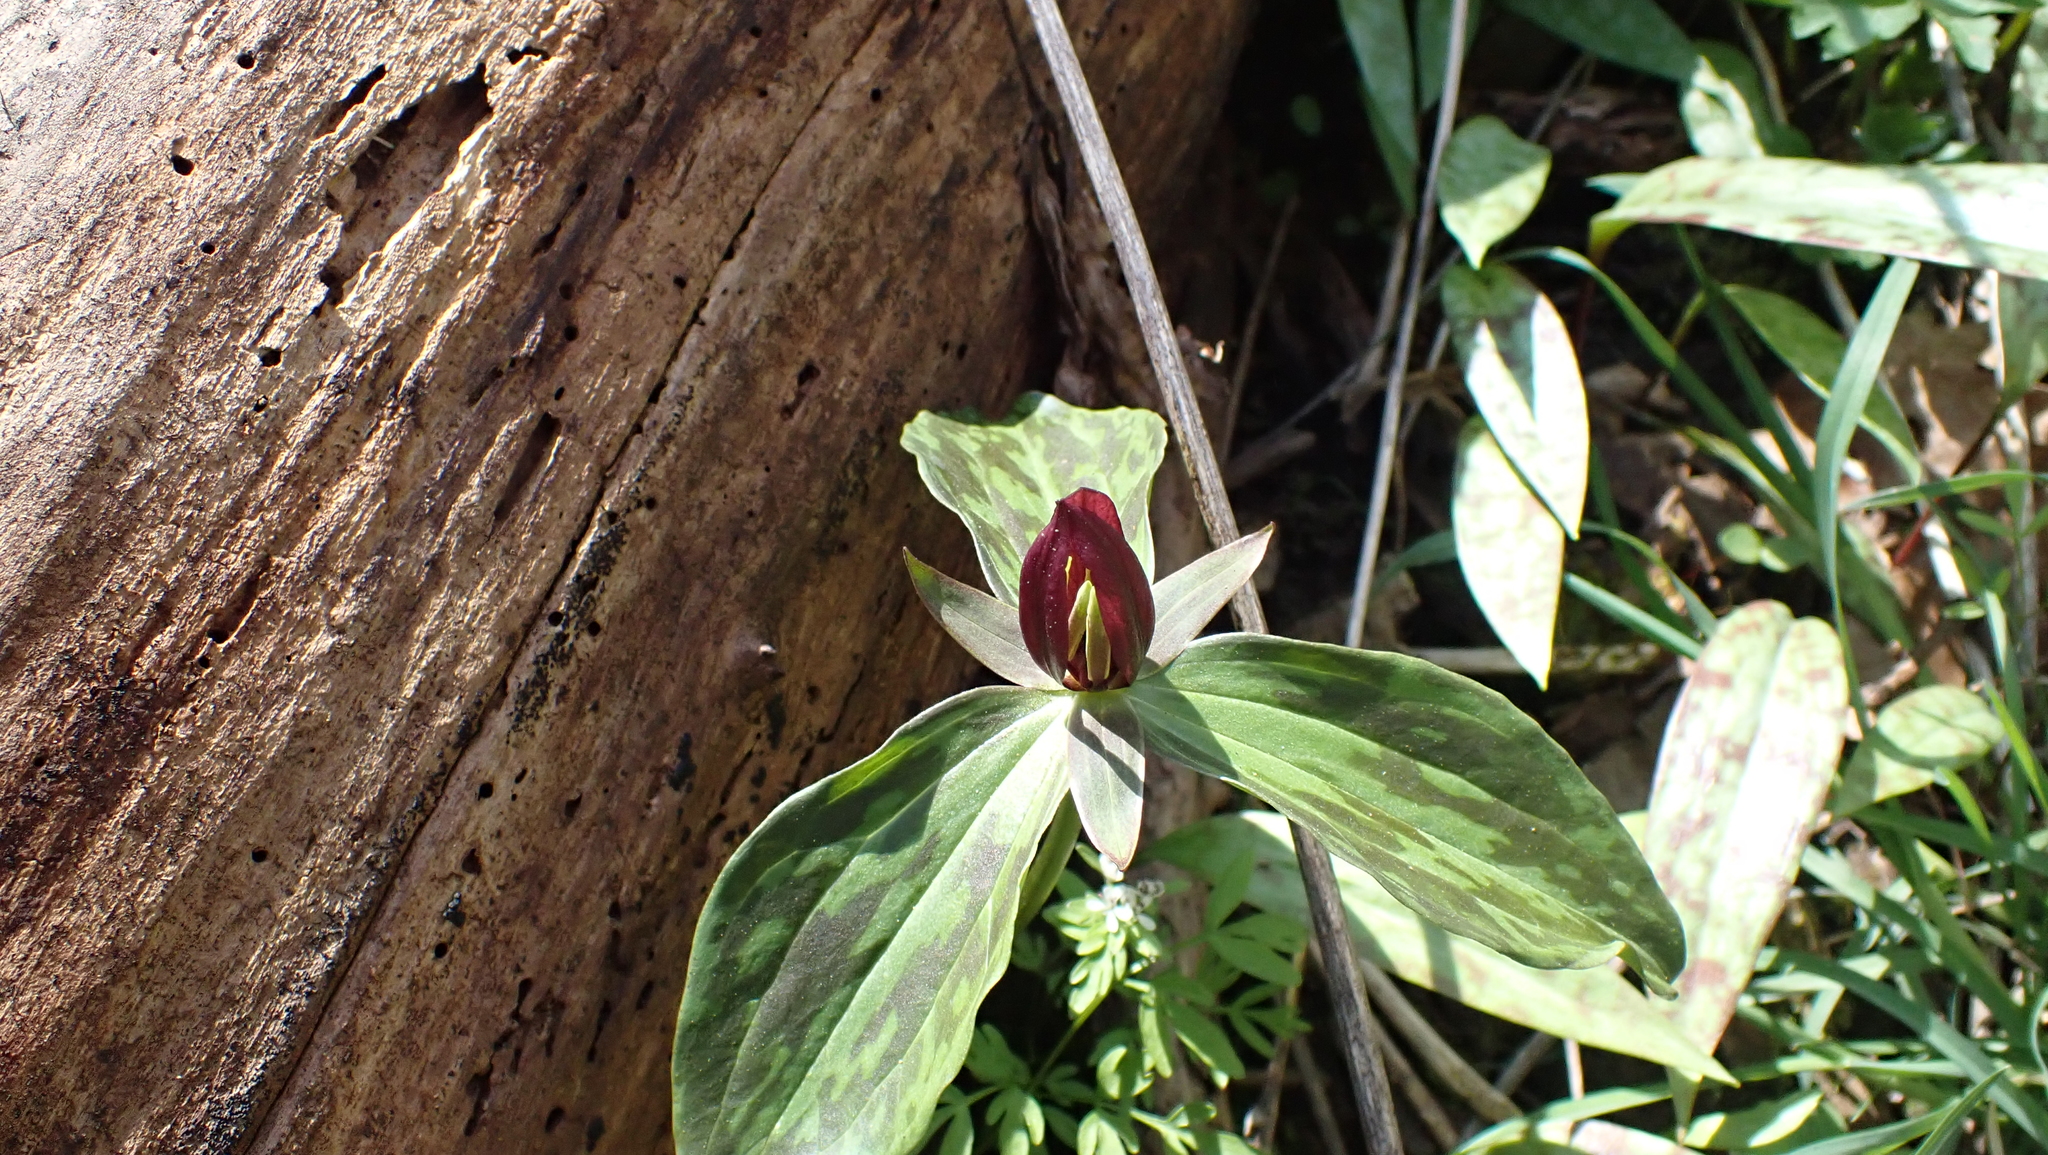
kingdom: Plantae
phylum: Tracheophyta
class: Liliopsida
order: Liliales
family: Melanthiaceae
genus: Trillium
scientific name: Trillium sessile
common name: Sessile trillium
